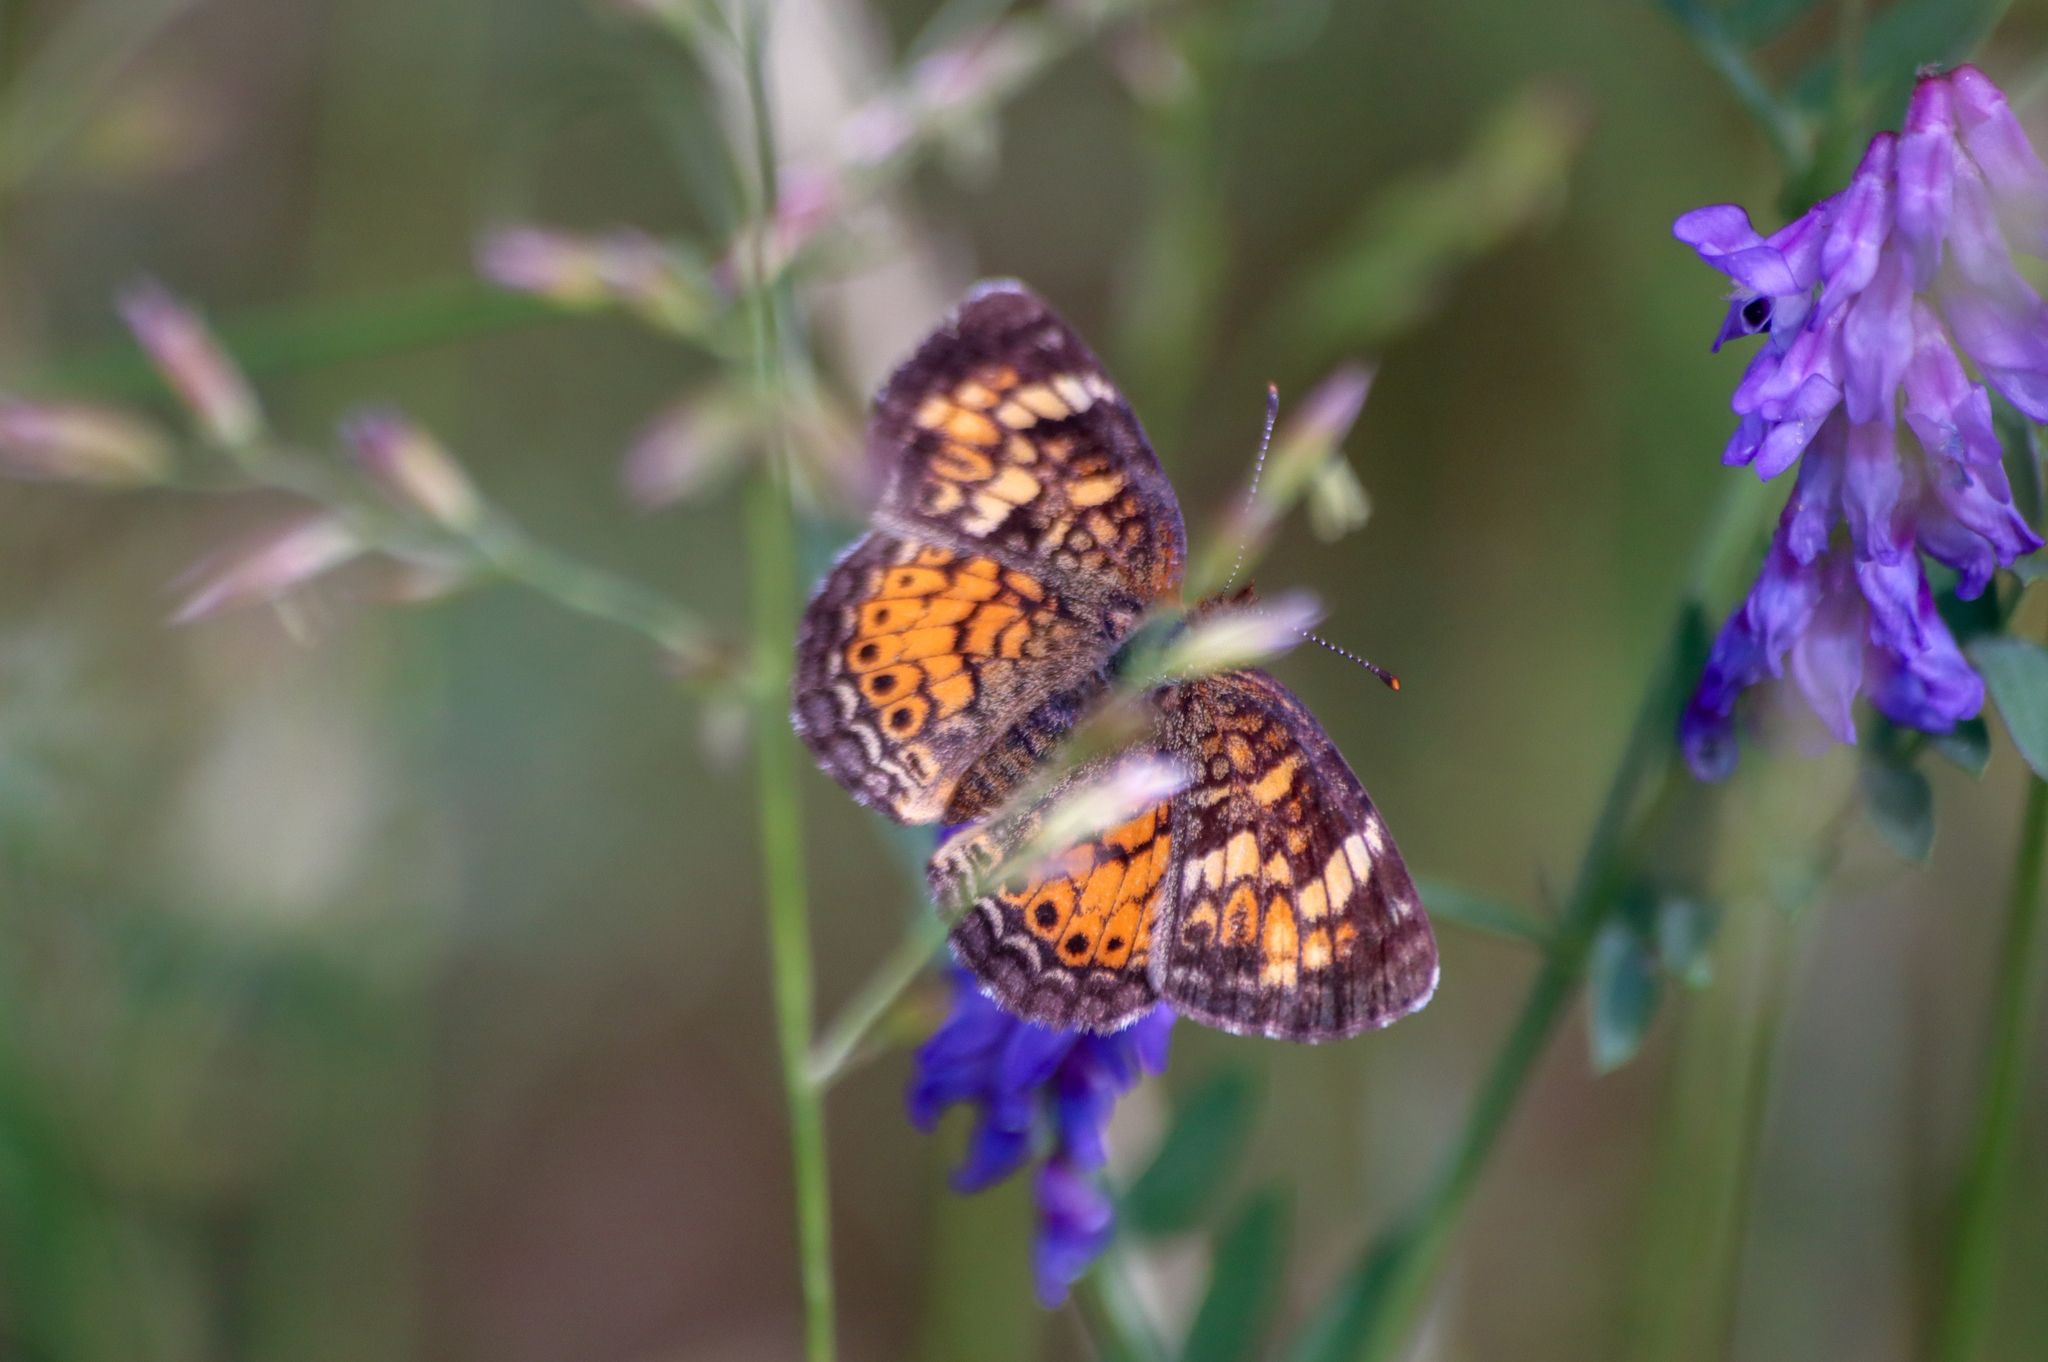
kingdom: Animalia
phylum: Arthropoda
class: Insecta
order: Lepidoptera
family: Nymphalidae
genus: Phyciodes
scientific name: Phyciodes tharos
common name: Pearl crescent
